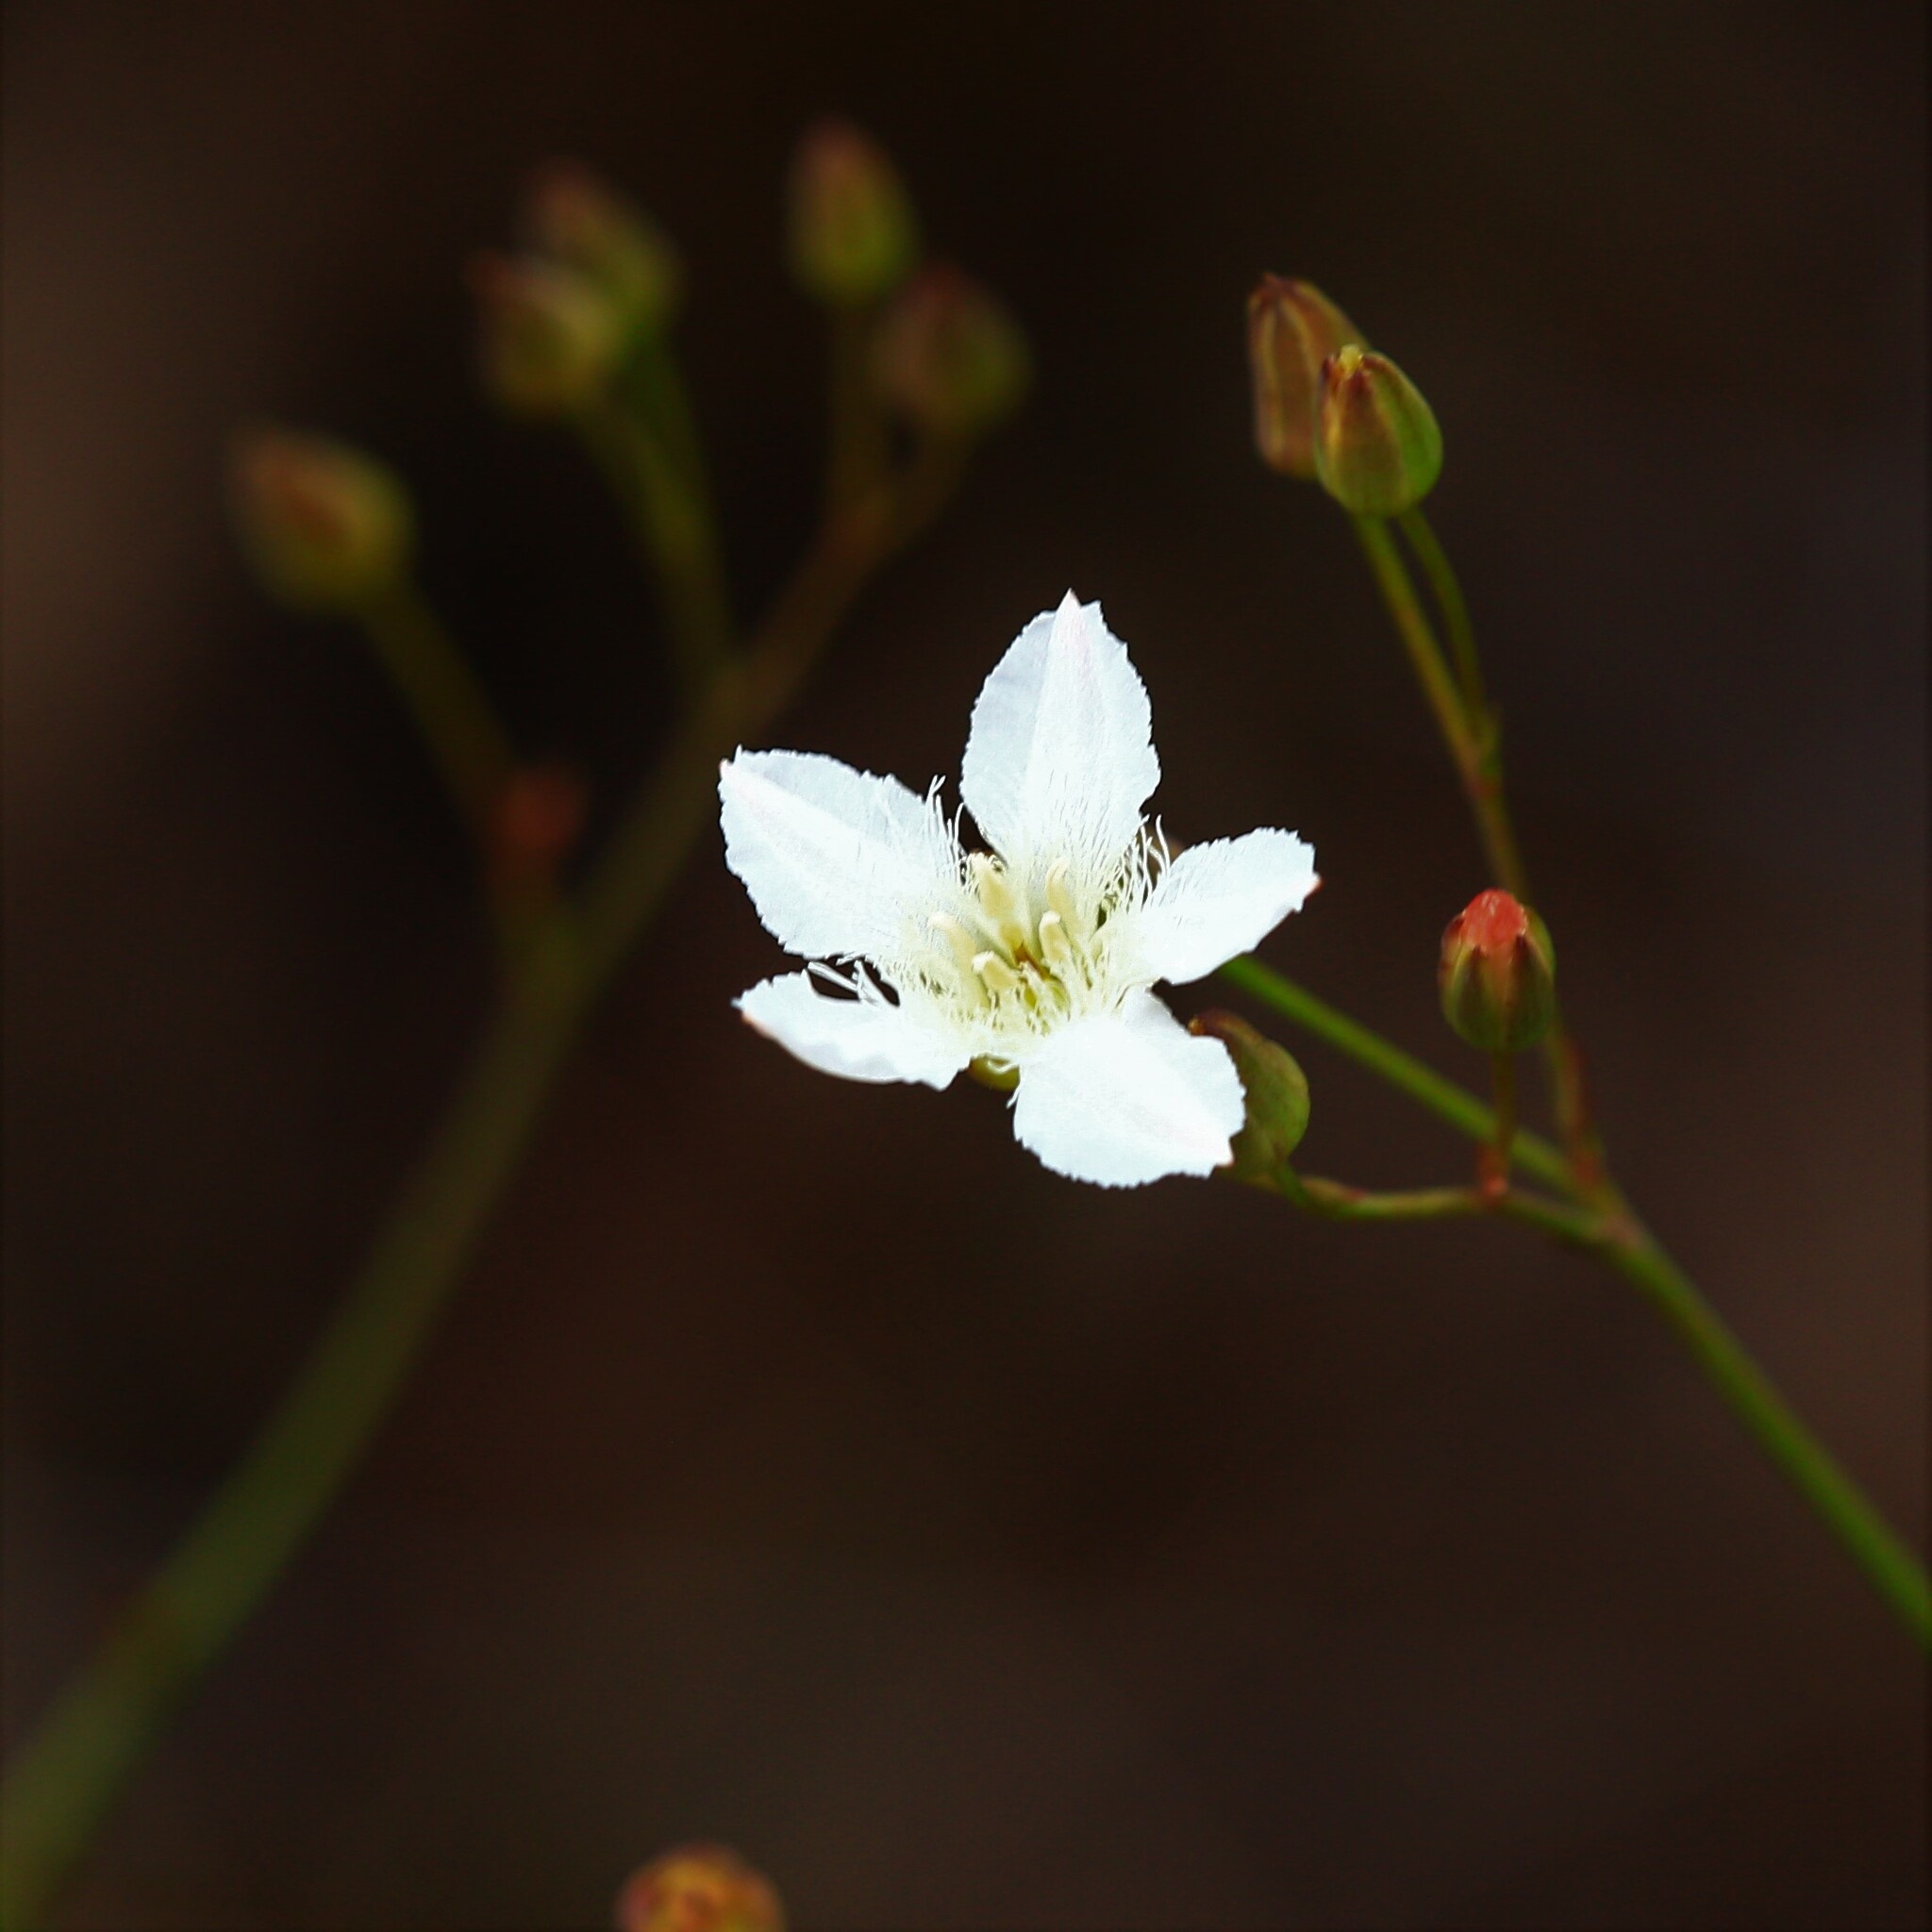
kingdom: Plantae
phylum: Tracheophyta
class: Magnoliopsida
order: Asterales
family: Menyanthaceae
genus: Ornduffia
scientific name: Ornduffia albiflora
